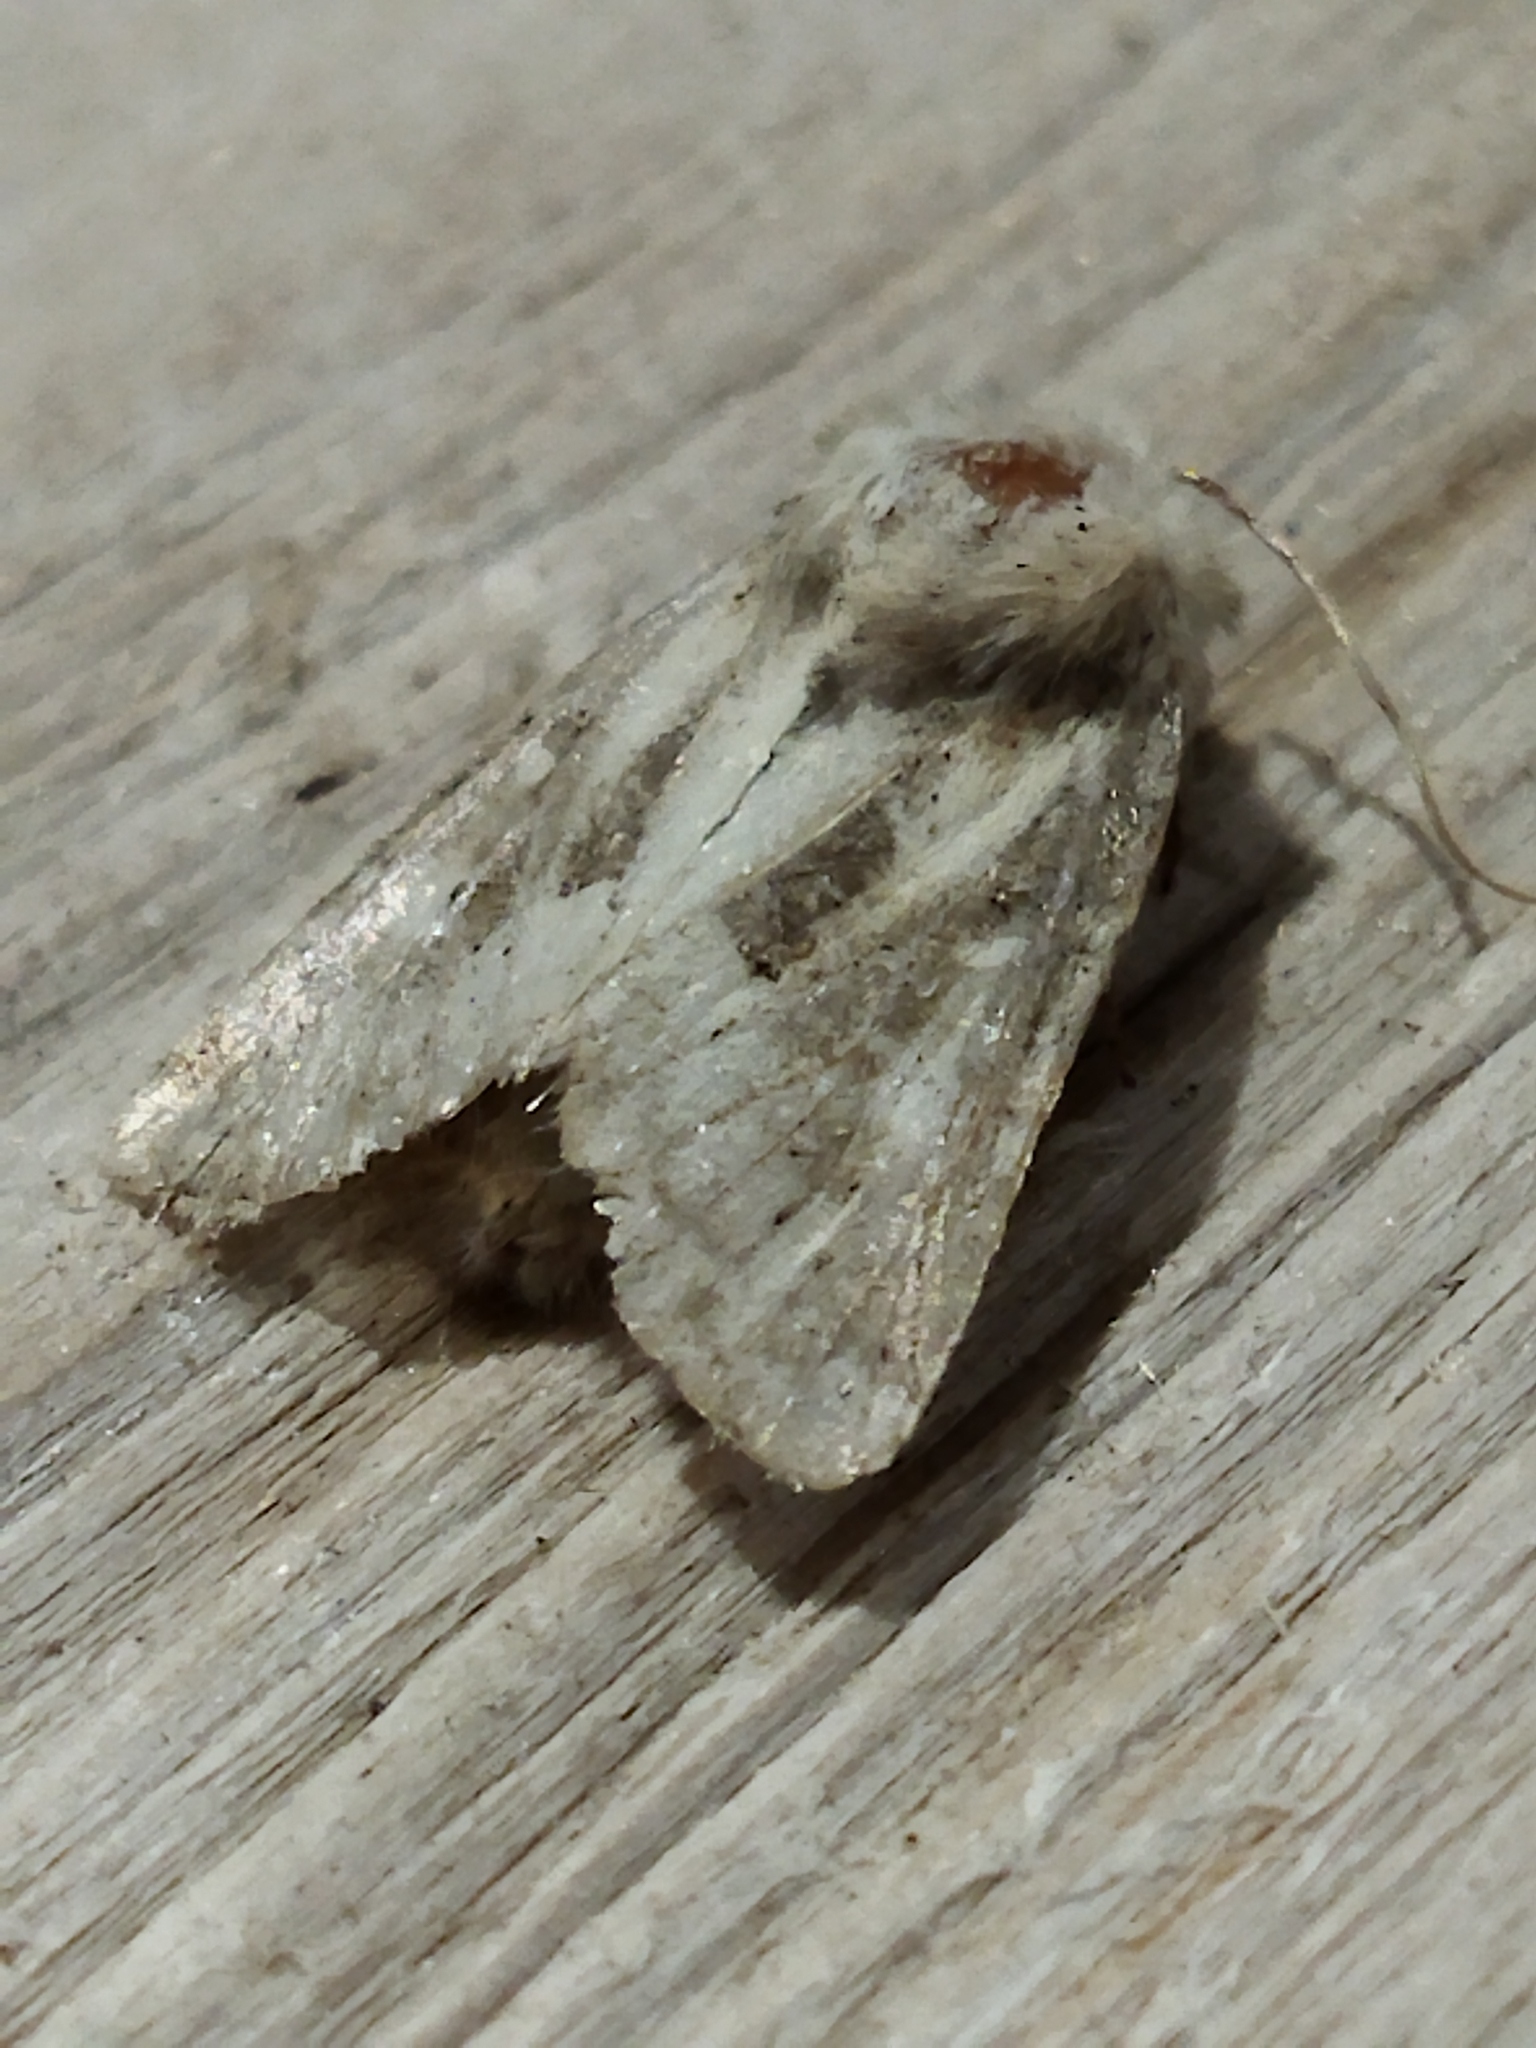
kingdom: Animalia
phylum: Arthropoda
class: Insecta
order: Lepidoptera
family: Noctuidae
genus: Luperina
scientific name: Luperina dumerilii
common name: Dumeril's rustic
